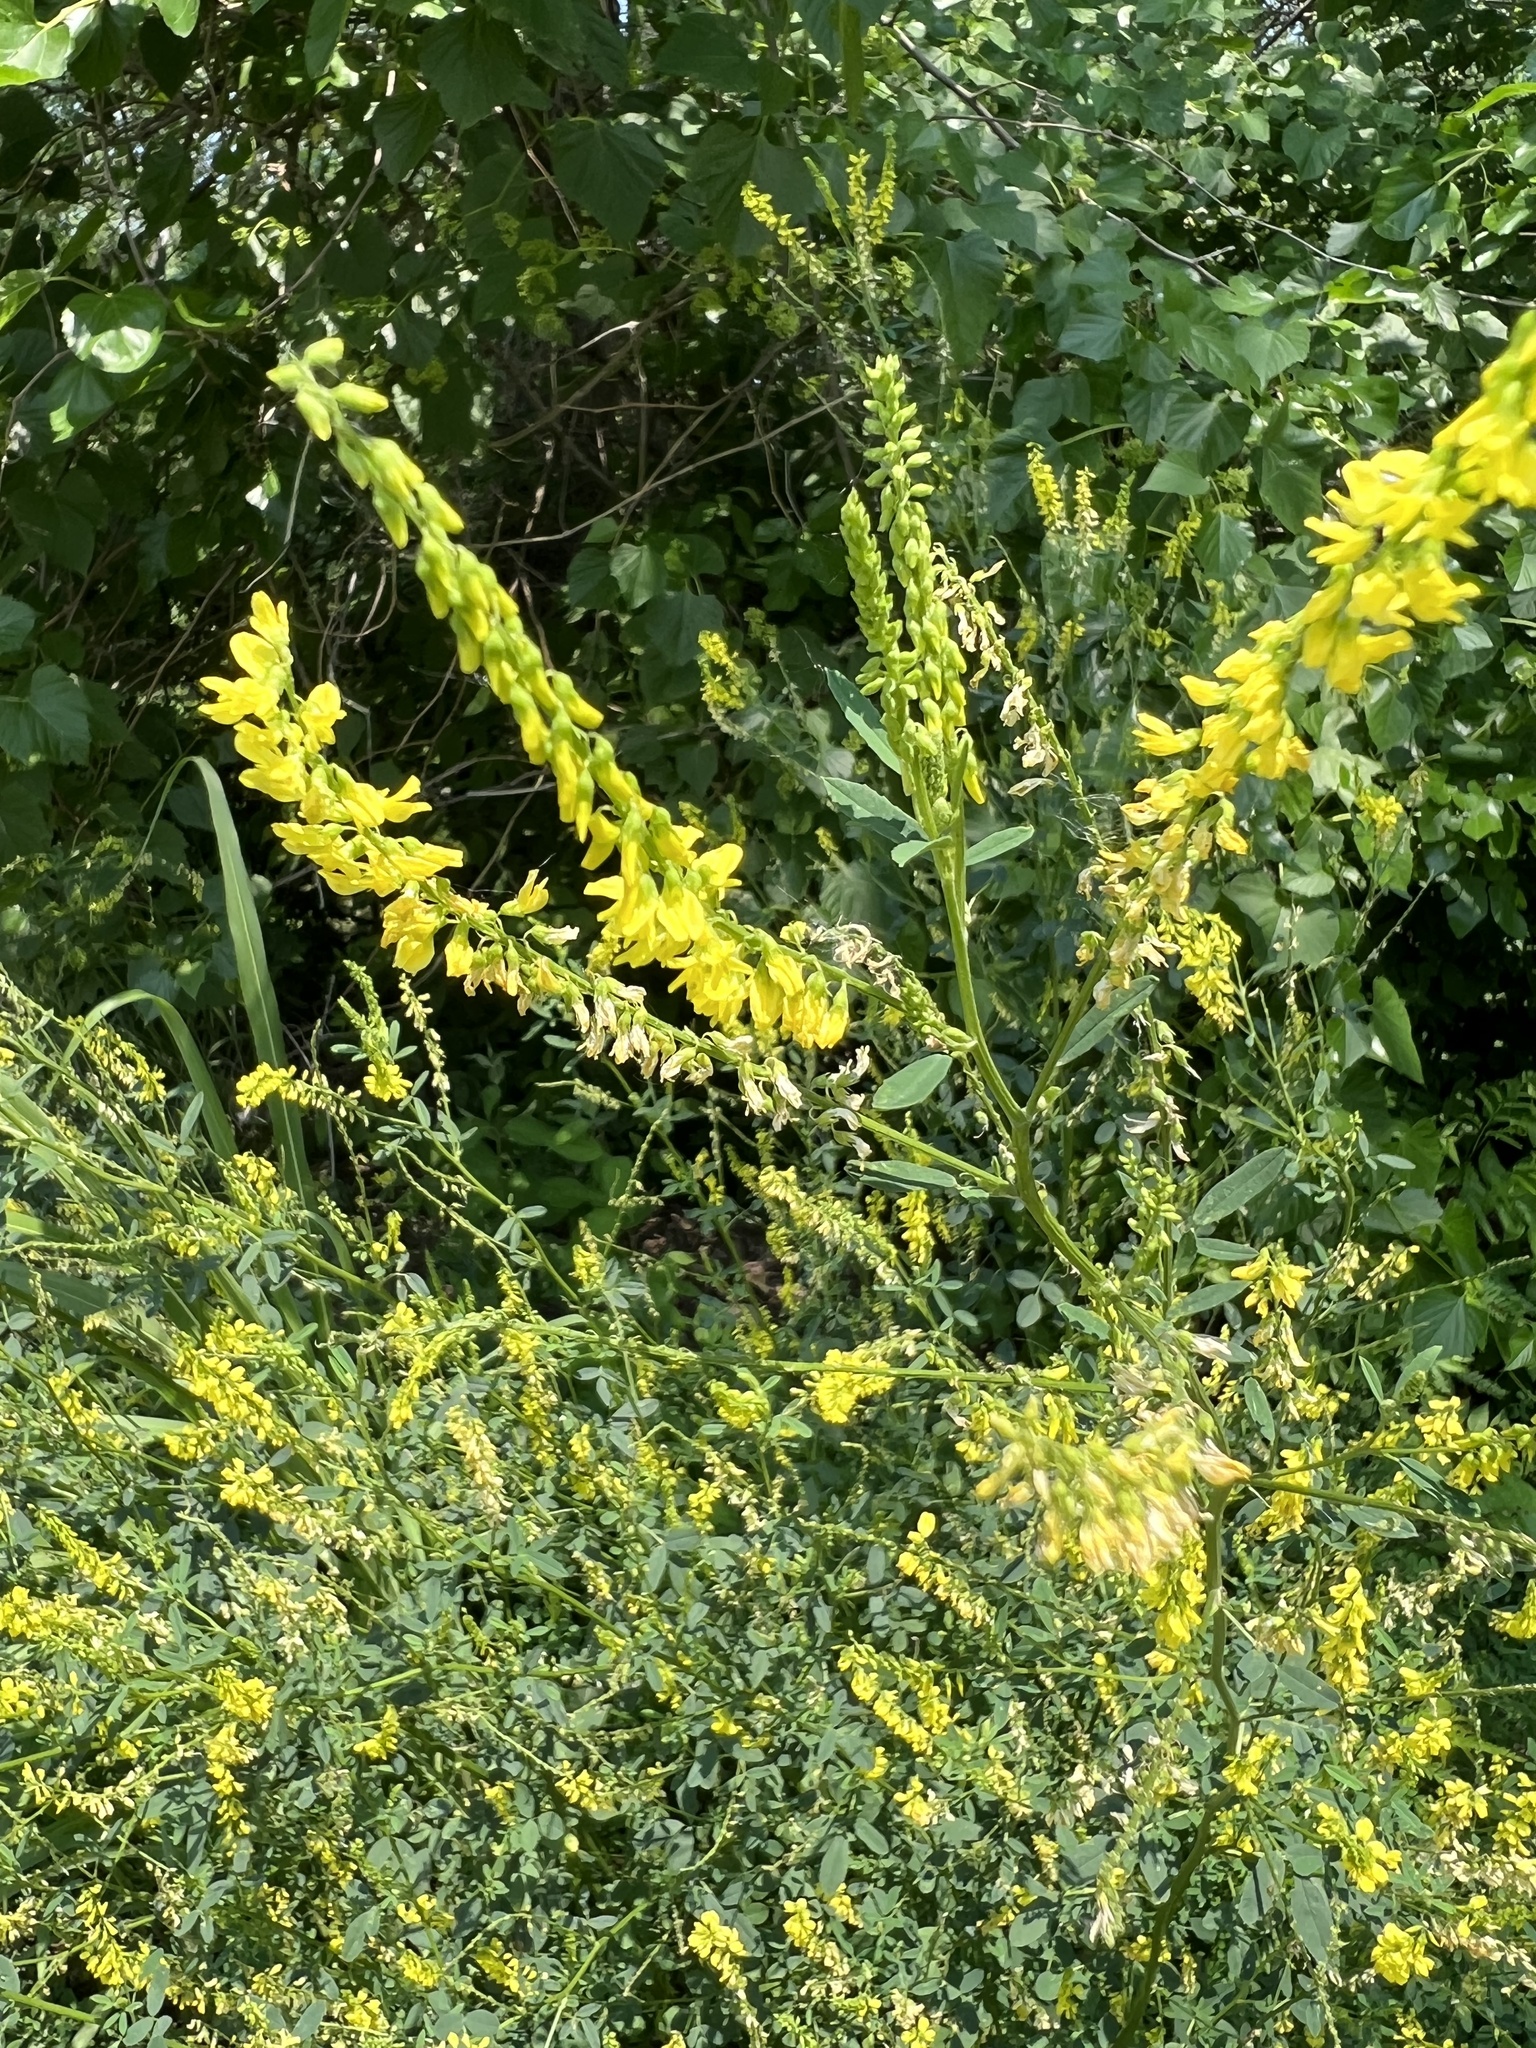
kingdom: Plantae
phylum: Tracheophyta
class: Magnoliopsida
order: Fabales
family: Fabaceae
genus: Melilotus
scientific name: Melilotus officinalis
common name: Sweetclover
